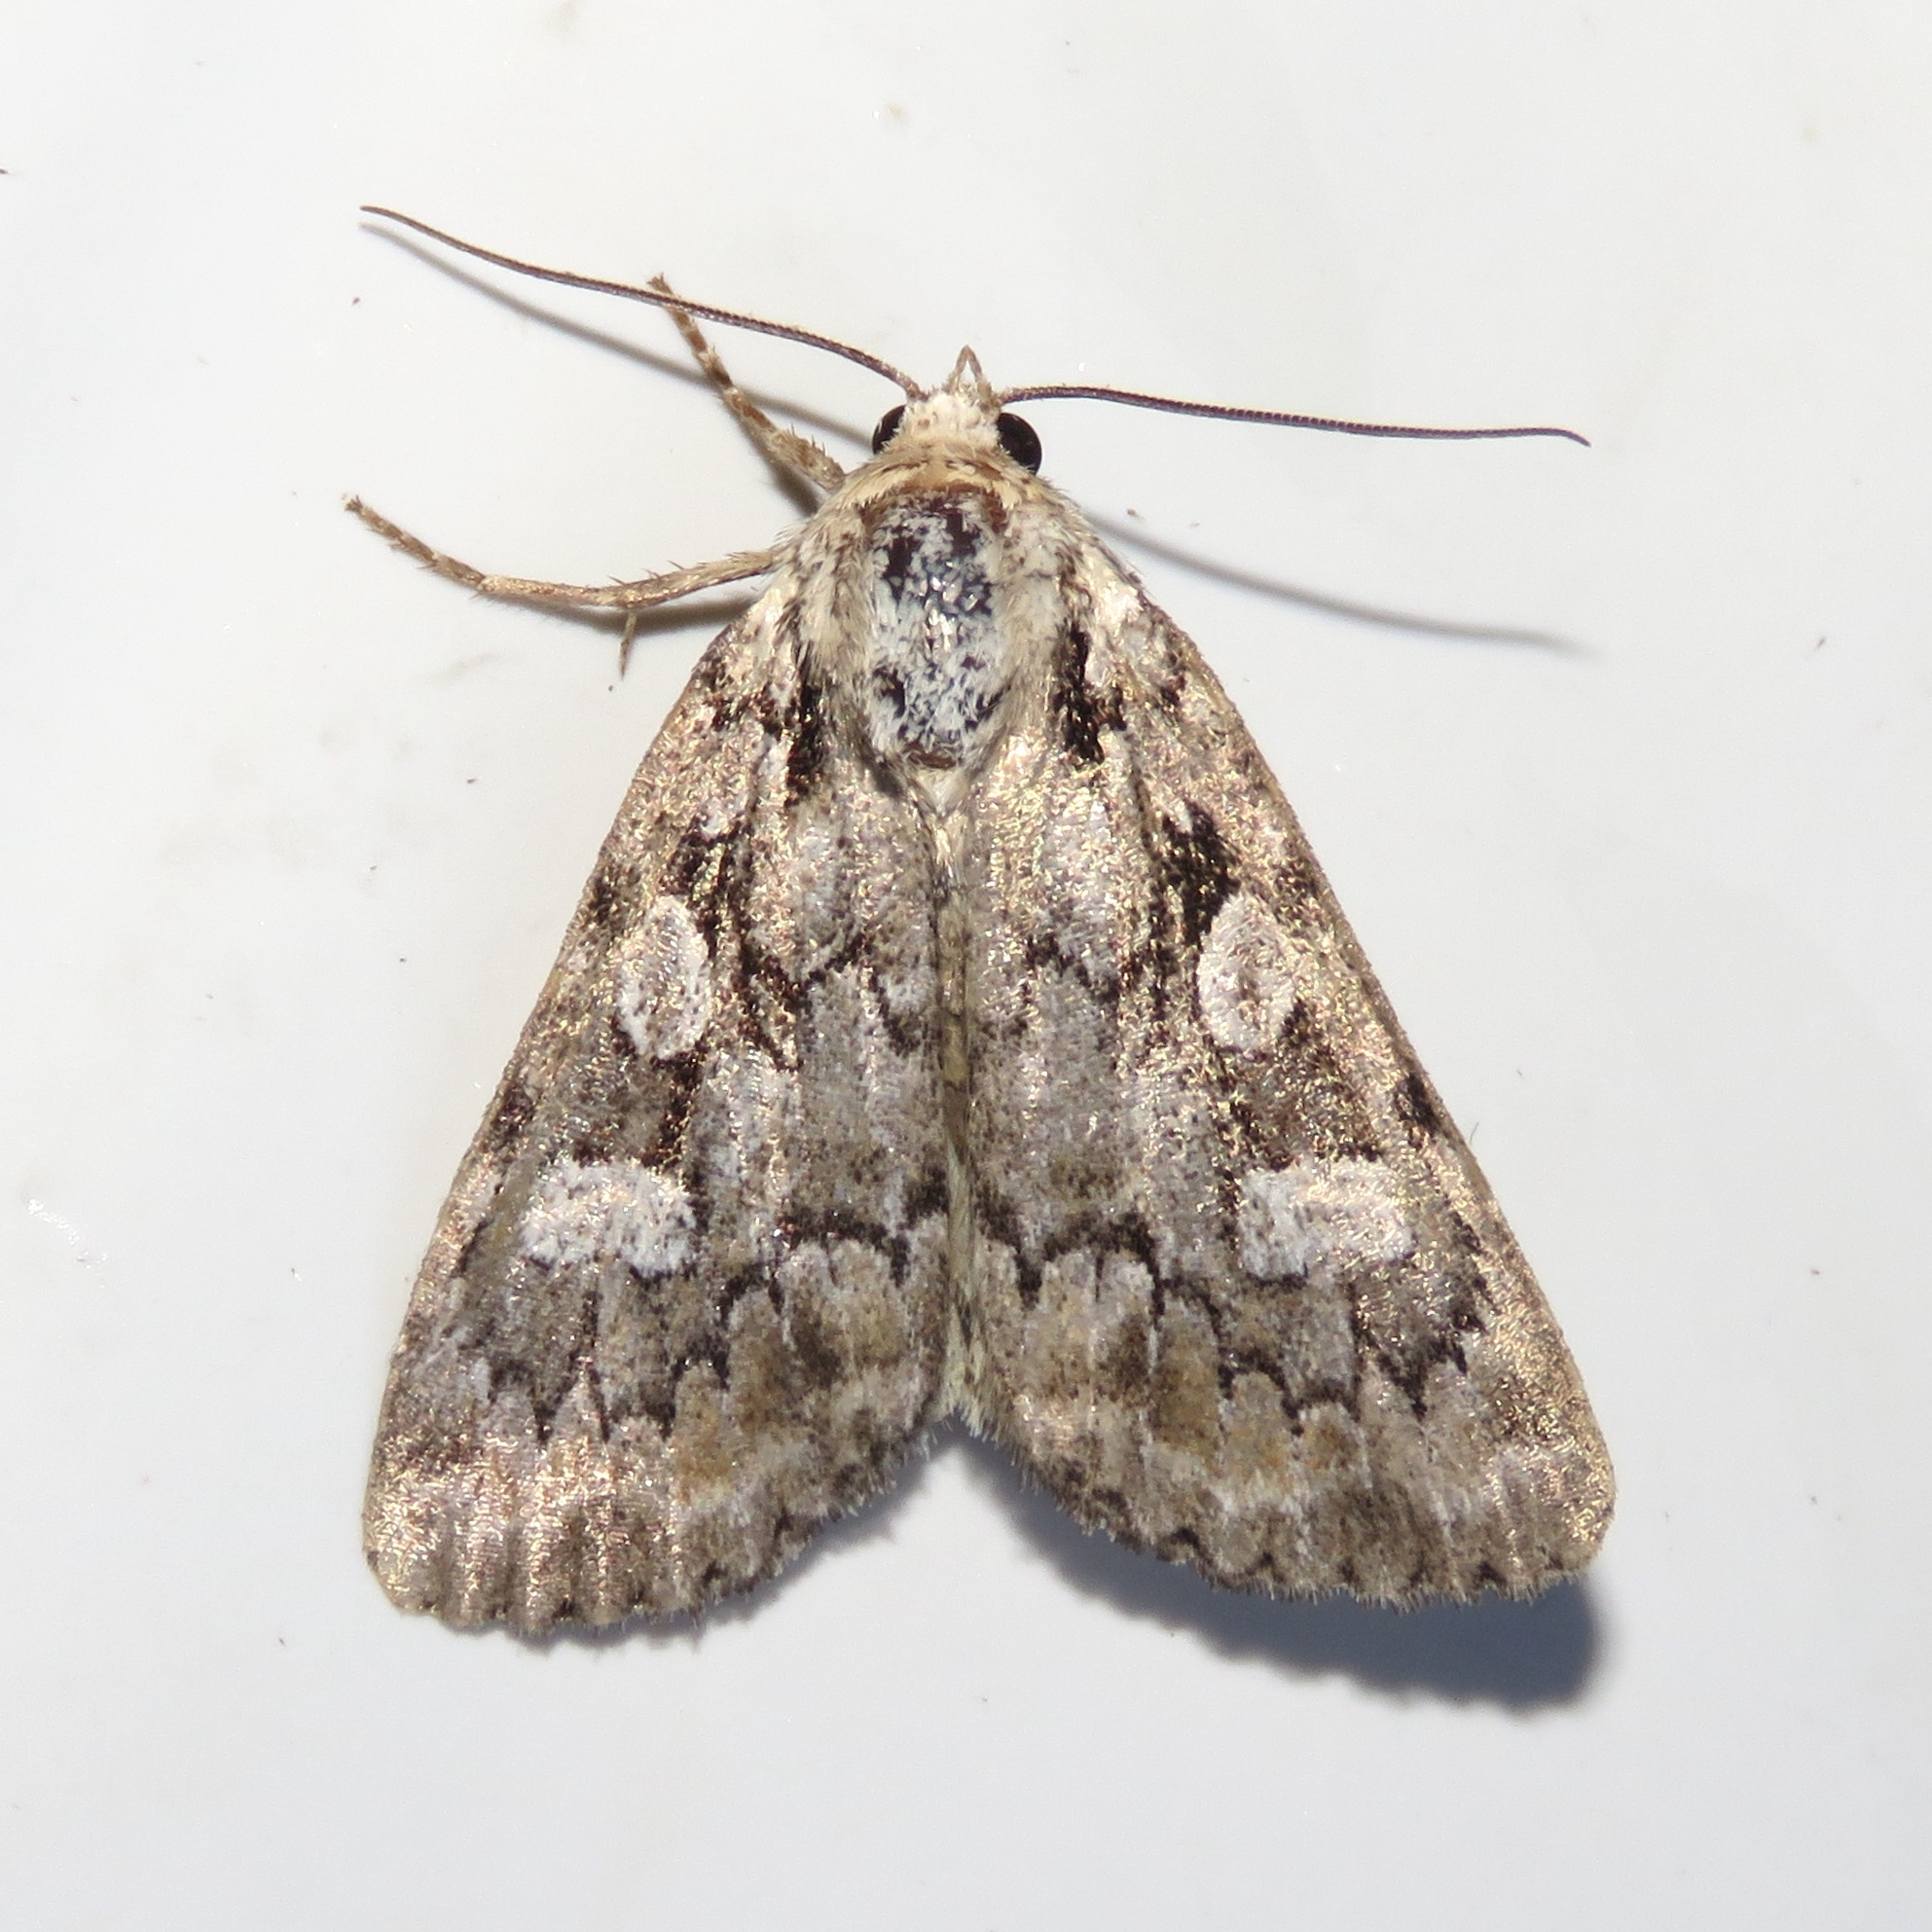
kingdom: Animalia
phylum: Arthropoda
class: Insecta
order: Lepidoptera
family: Noctuidae
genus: Aplectoides
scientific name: Aplectoides condita
